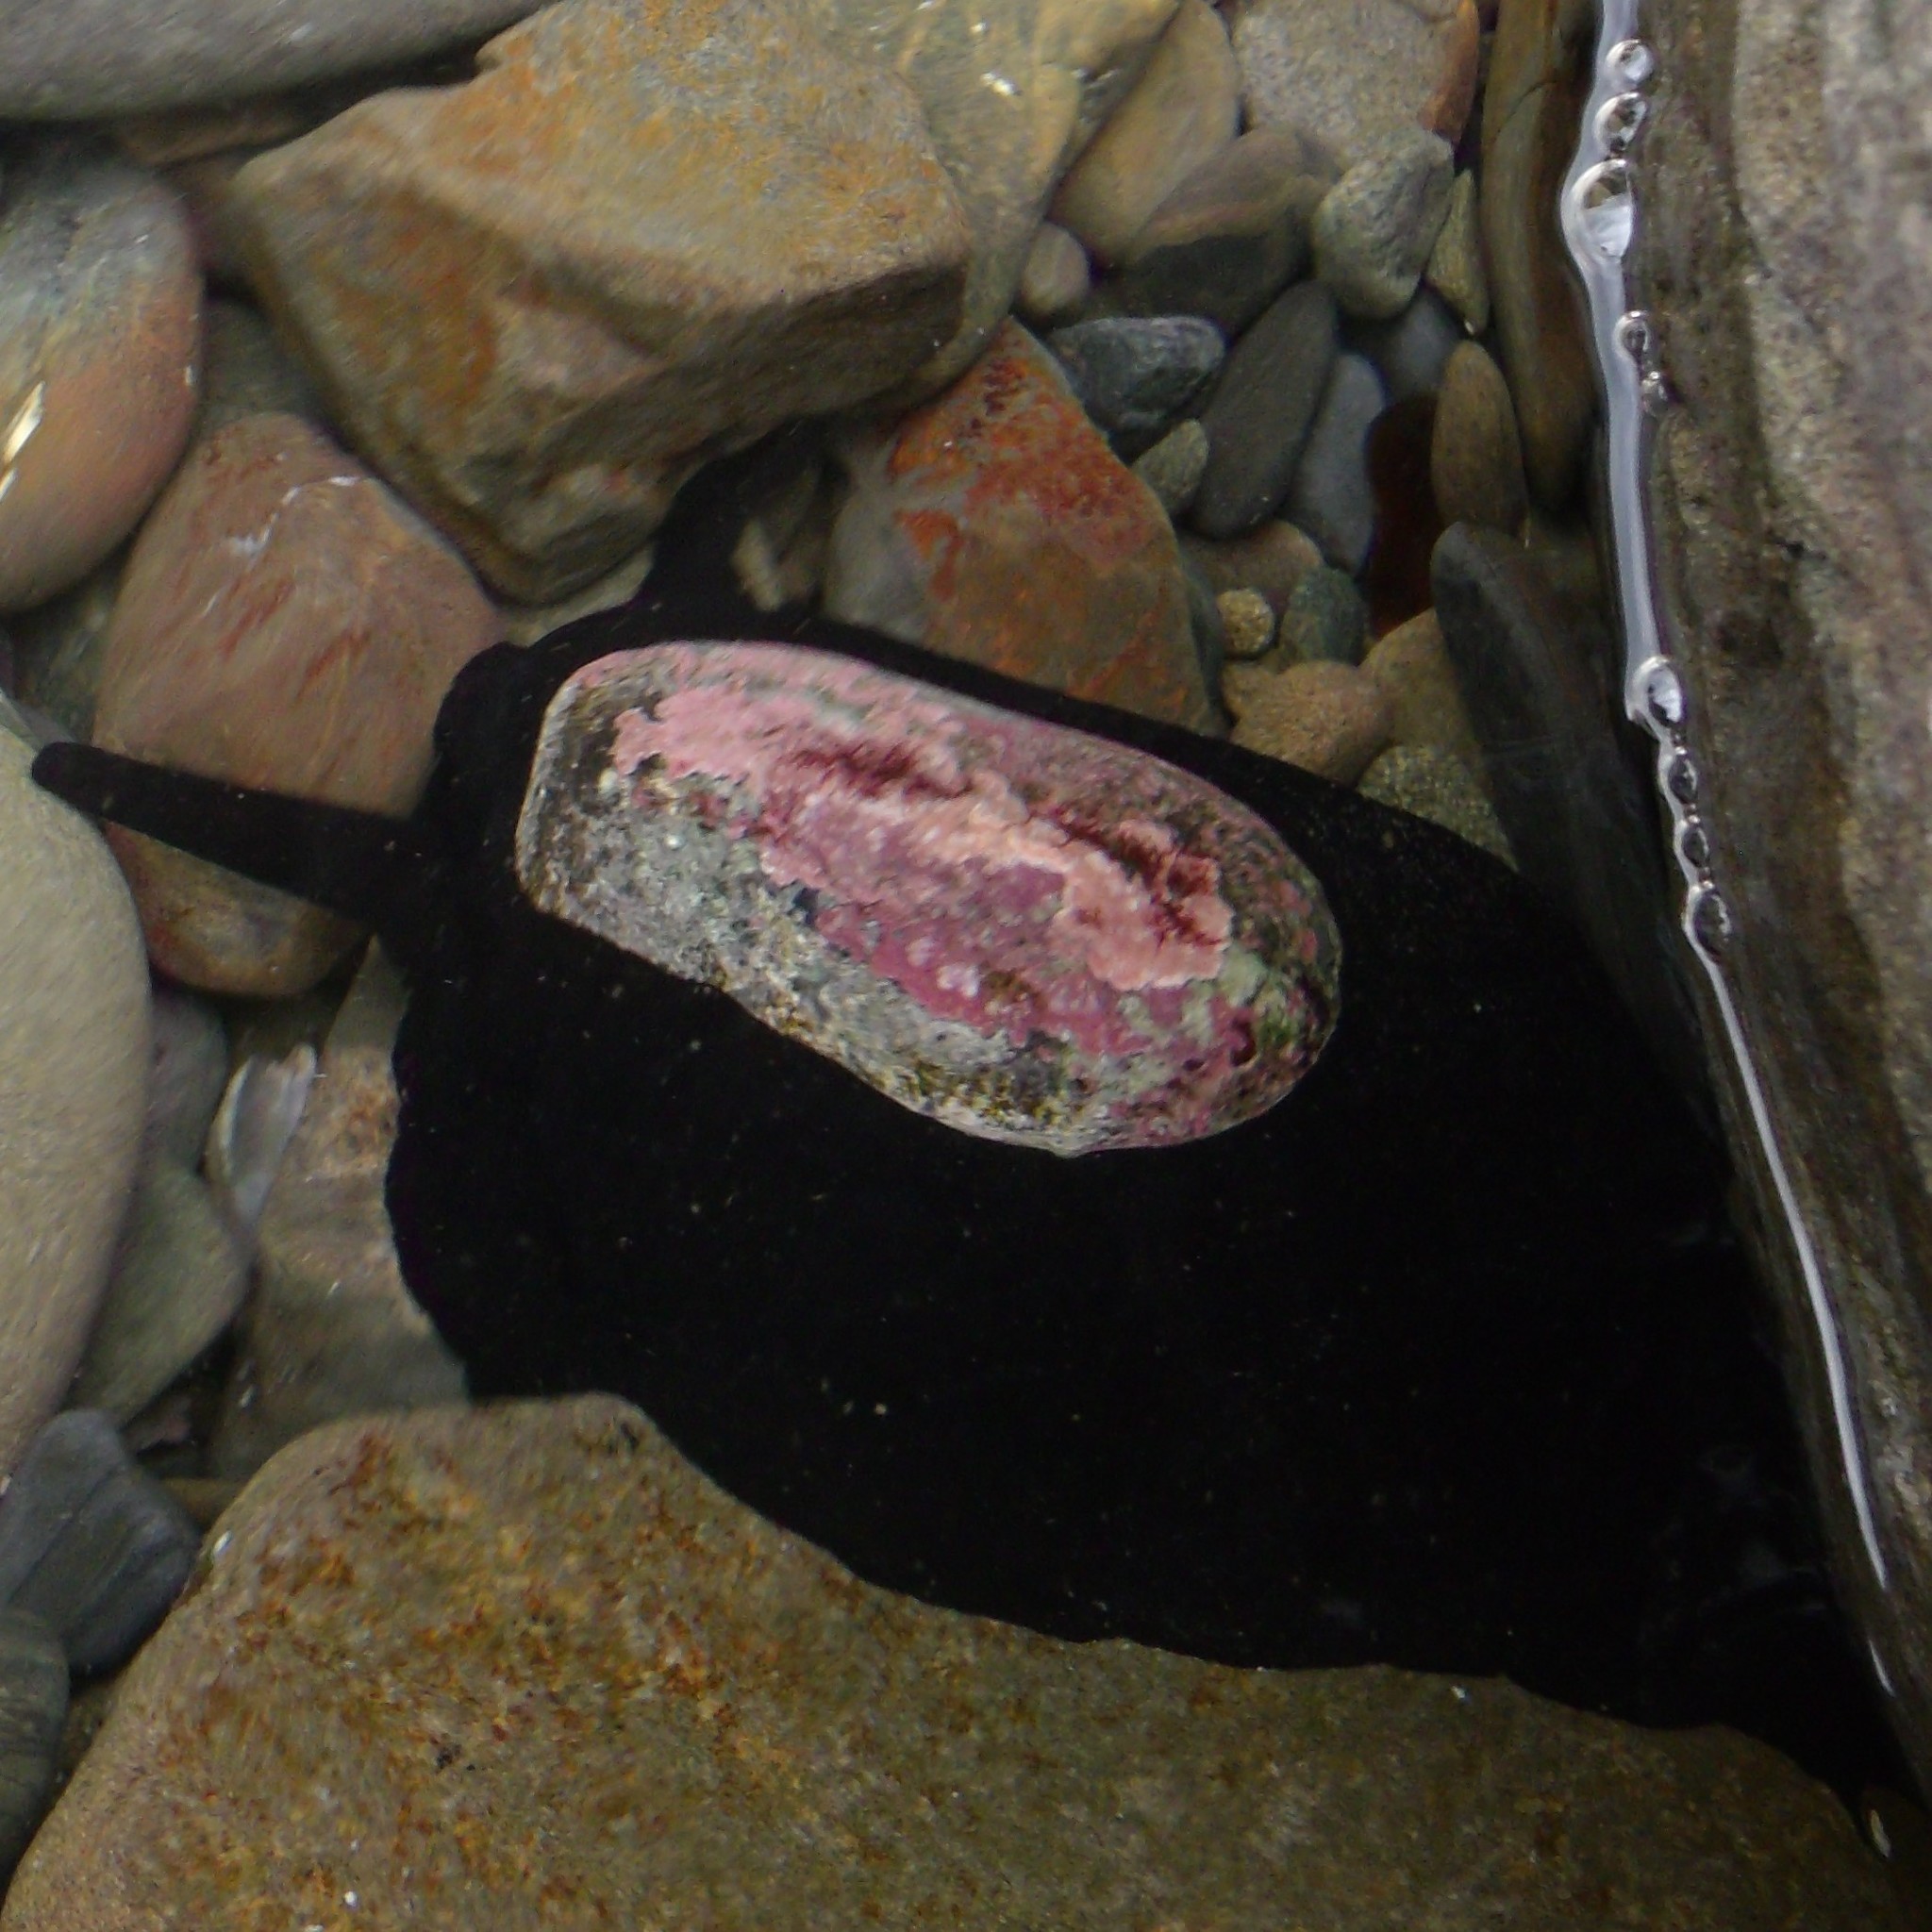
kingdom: Animalia
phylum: Mollusca
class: Gastropoda
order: Lepetellida
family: Fissurellidae
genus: Scutus
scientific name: Scutus breviculus
